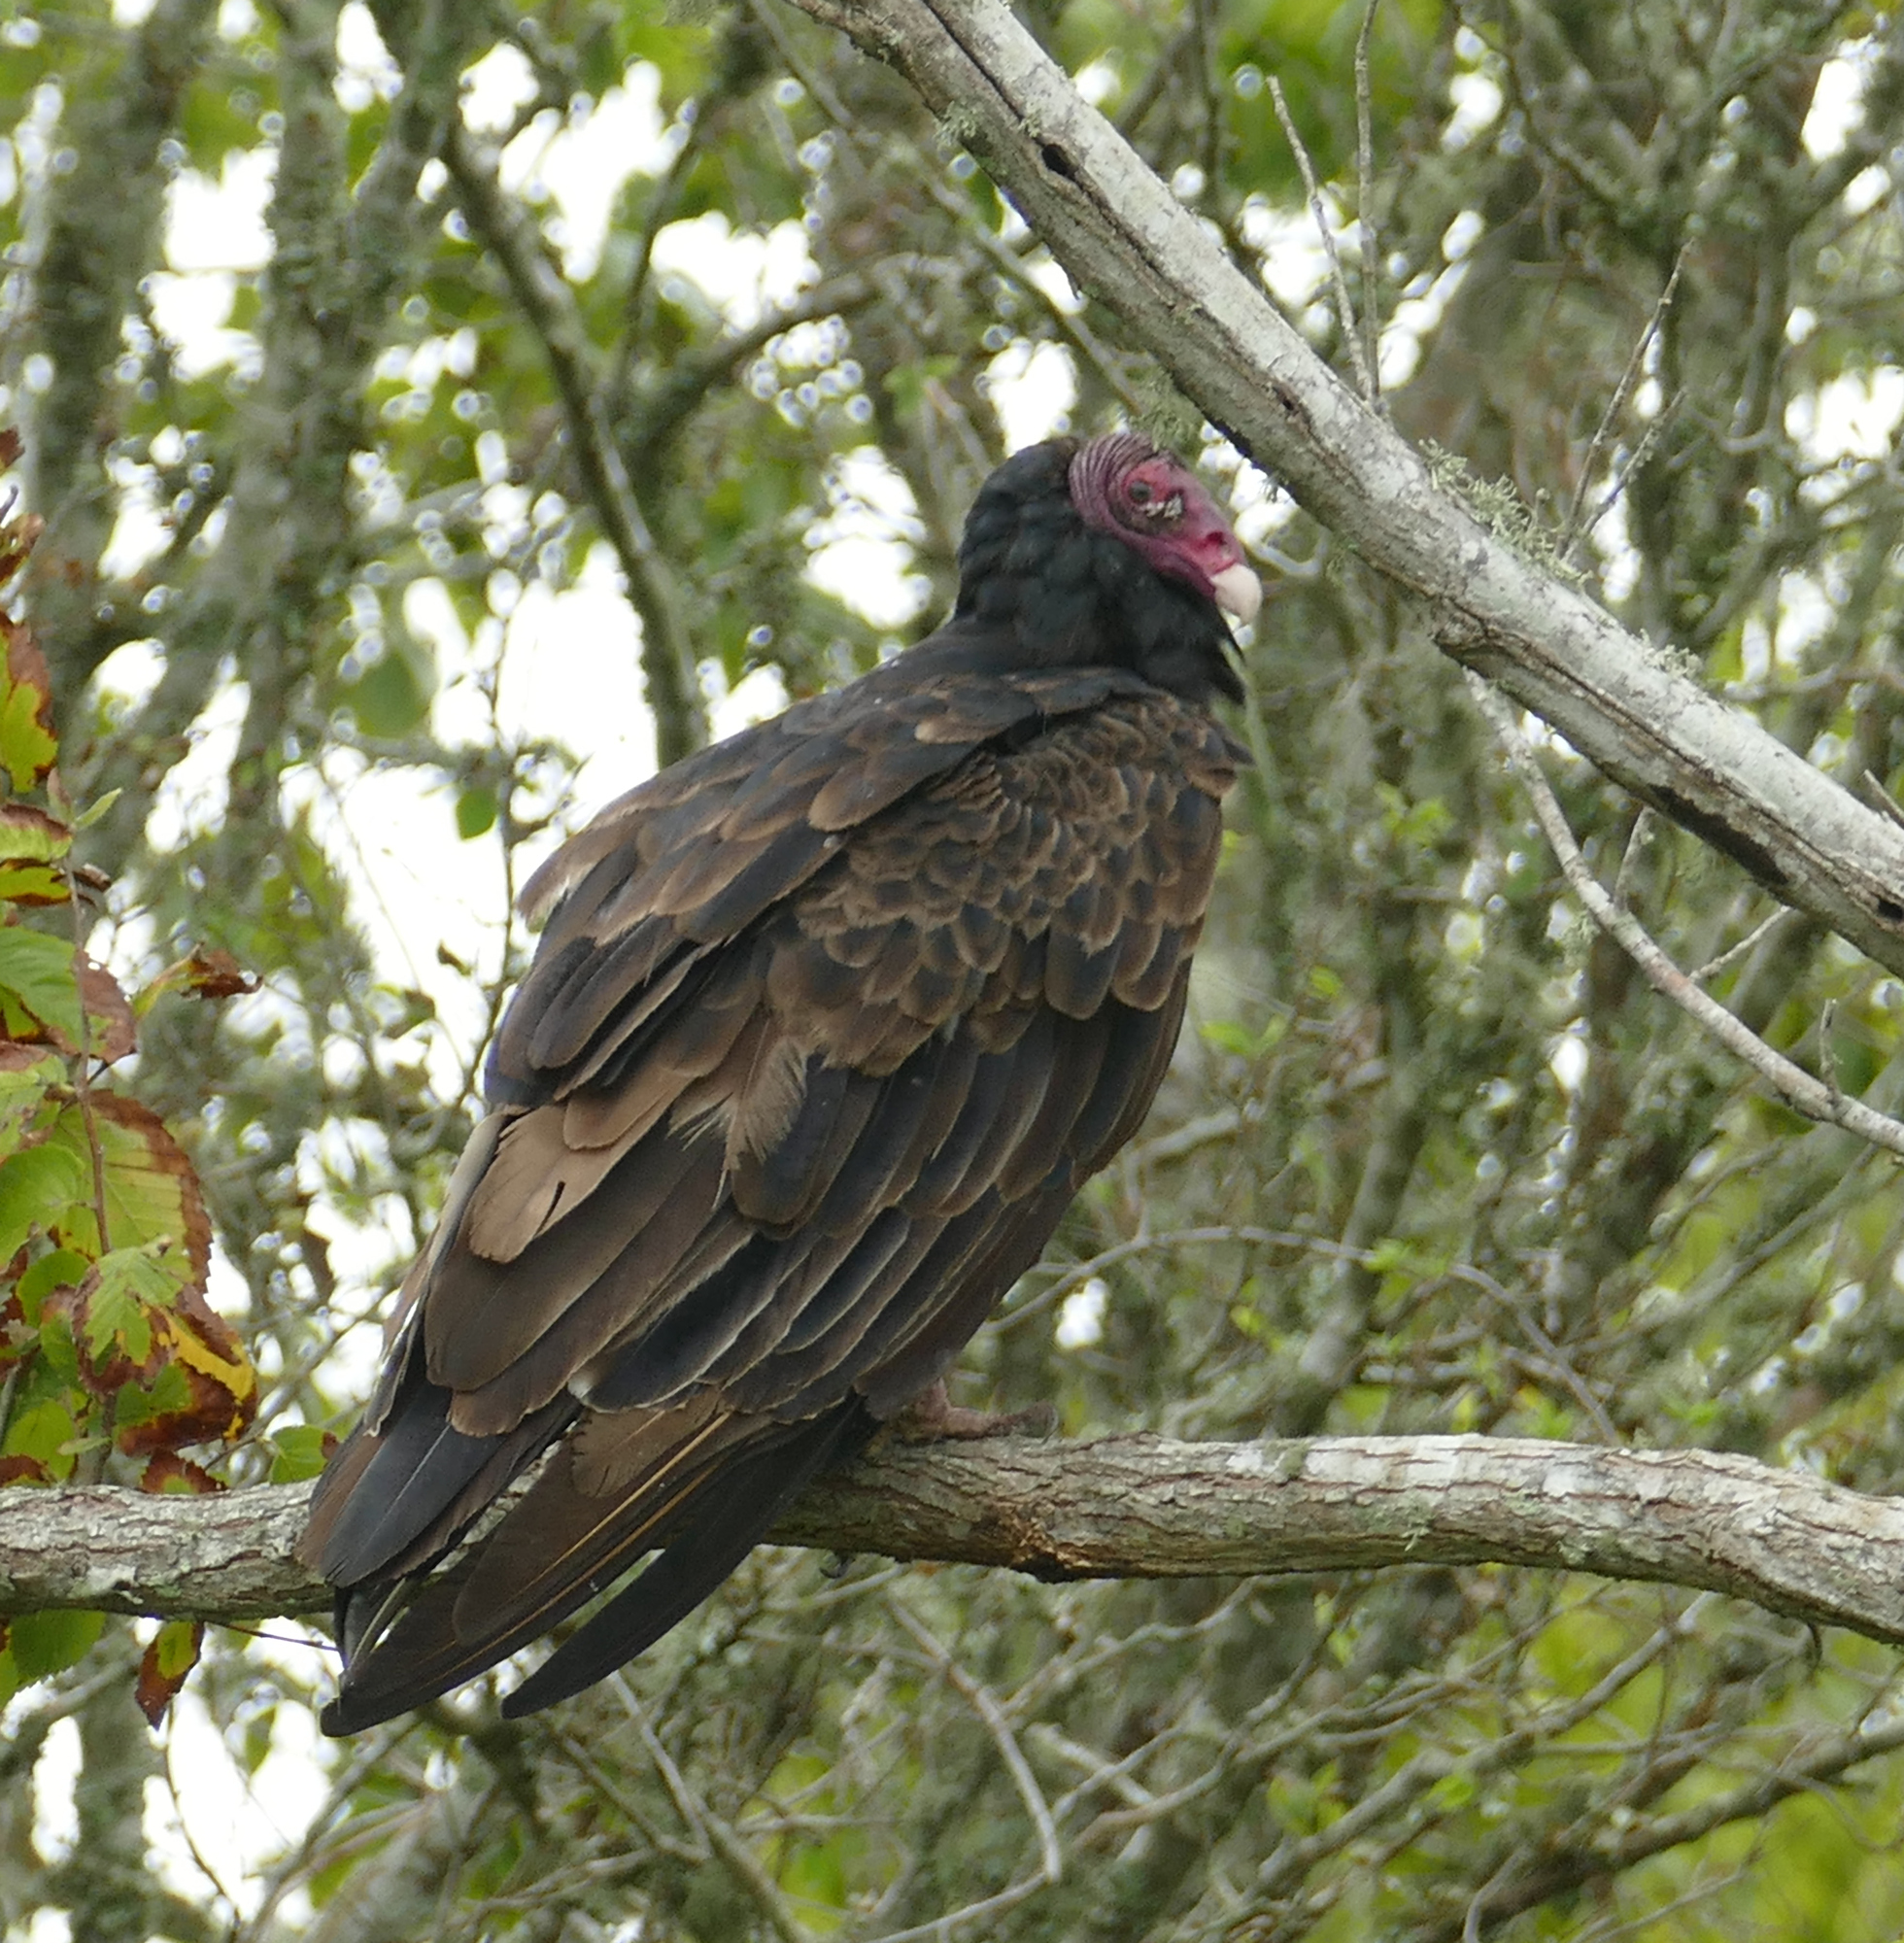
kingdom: Animalia
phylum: Chordata
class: Aves
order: Accipitriformes
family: Cathartidae
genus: Cathartes
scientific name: Cathartes aura
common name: Turkey vulture
